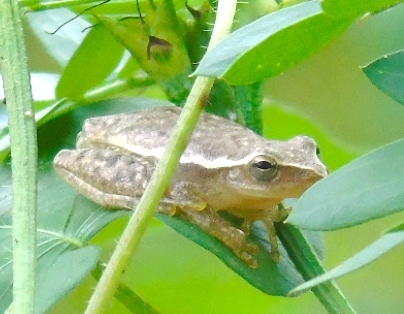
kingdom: Animalia
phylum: Chordata
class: Amphibia
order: Anura
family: Hylidae
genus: Tlalocohyla
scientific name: Tlalocohyla smithii
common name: Dwarf mexican treefrog
